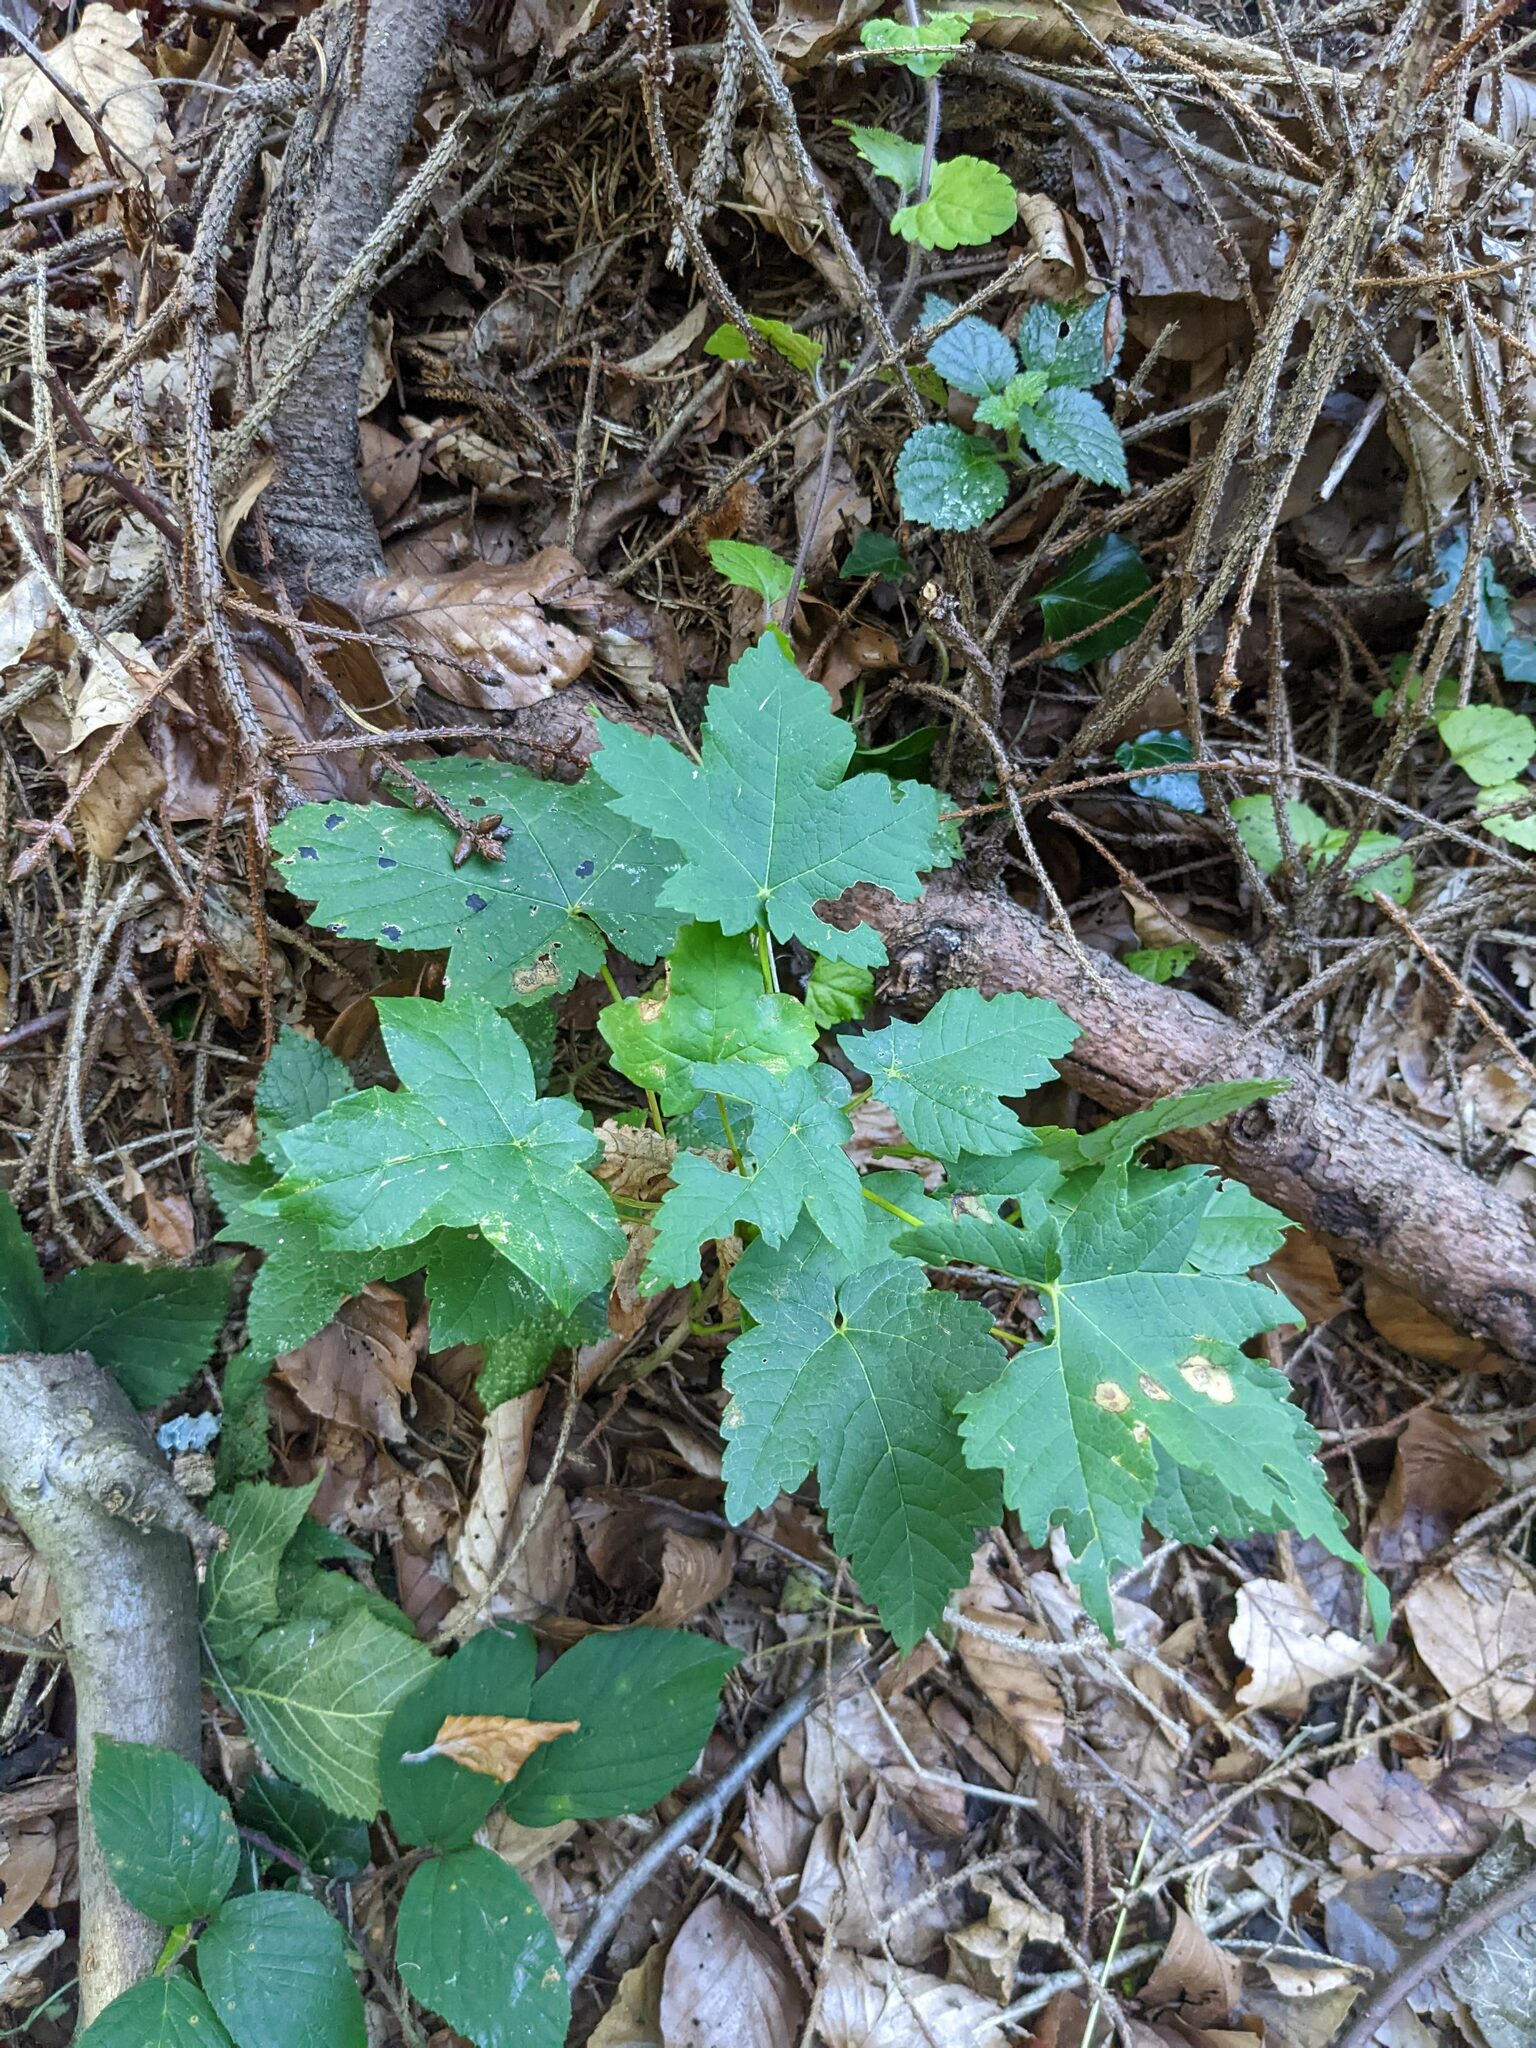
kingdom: Plantae
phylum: Tracheophyta
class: Magnoliopsida
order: Sapindales
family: Sapindaceae
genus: Acer
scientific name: Acer pseudoplatanus
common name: Sycamore
